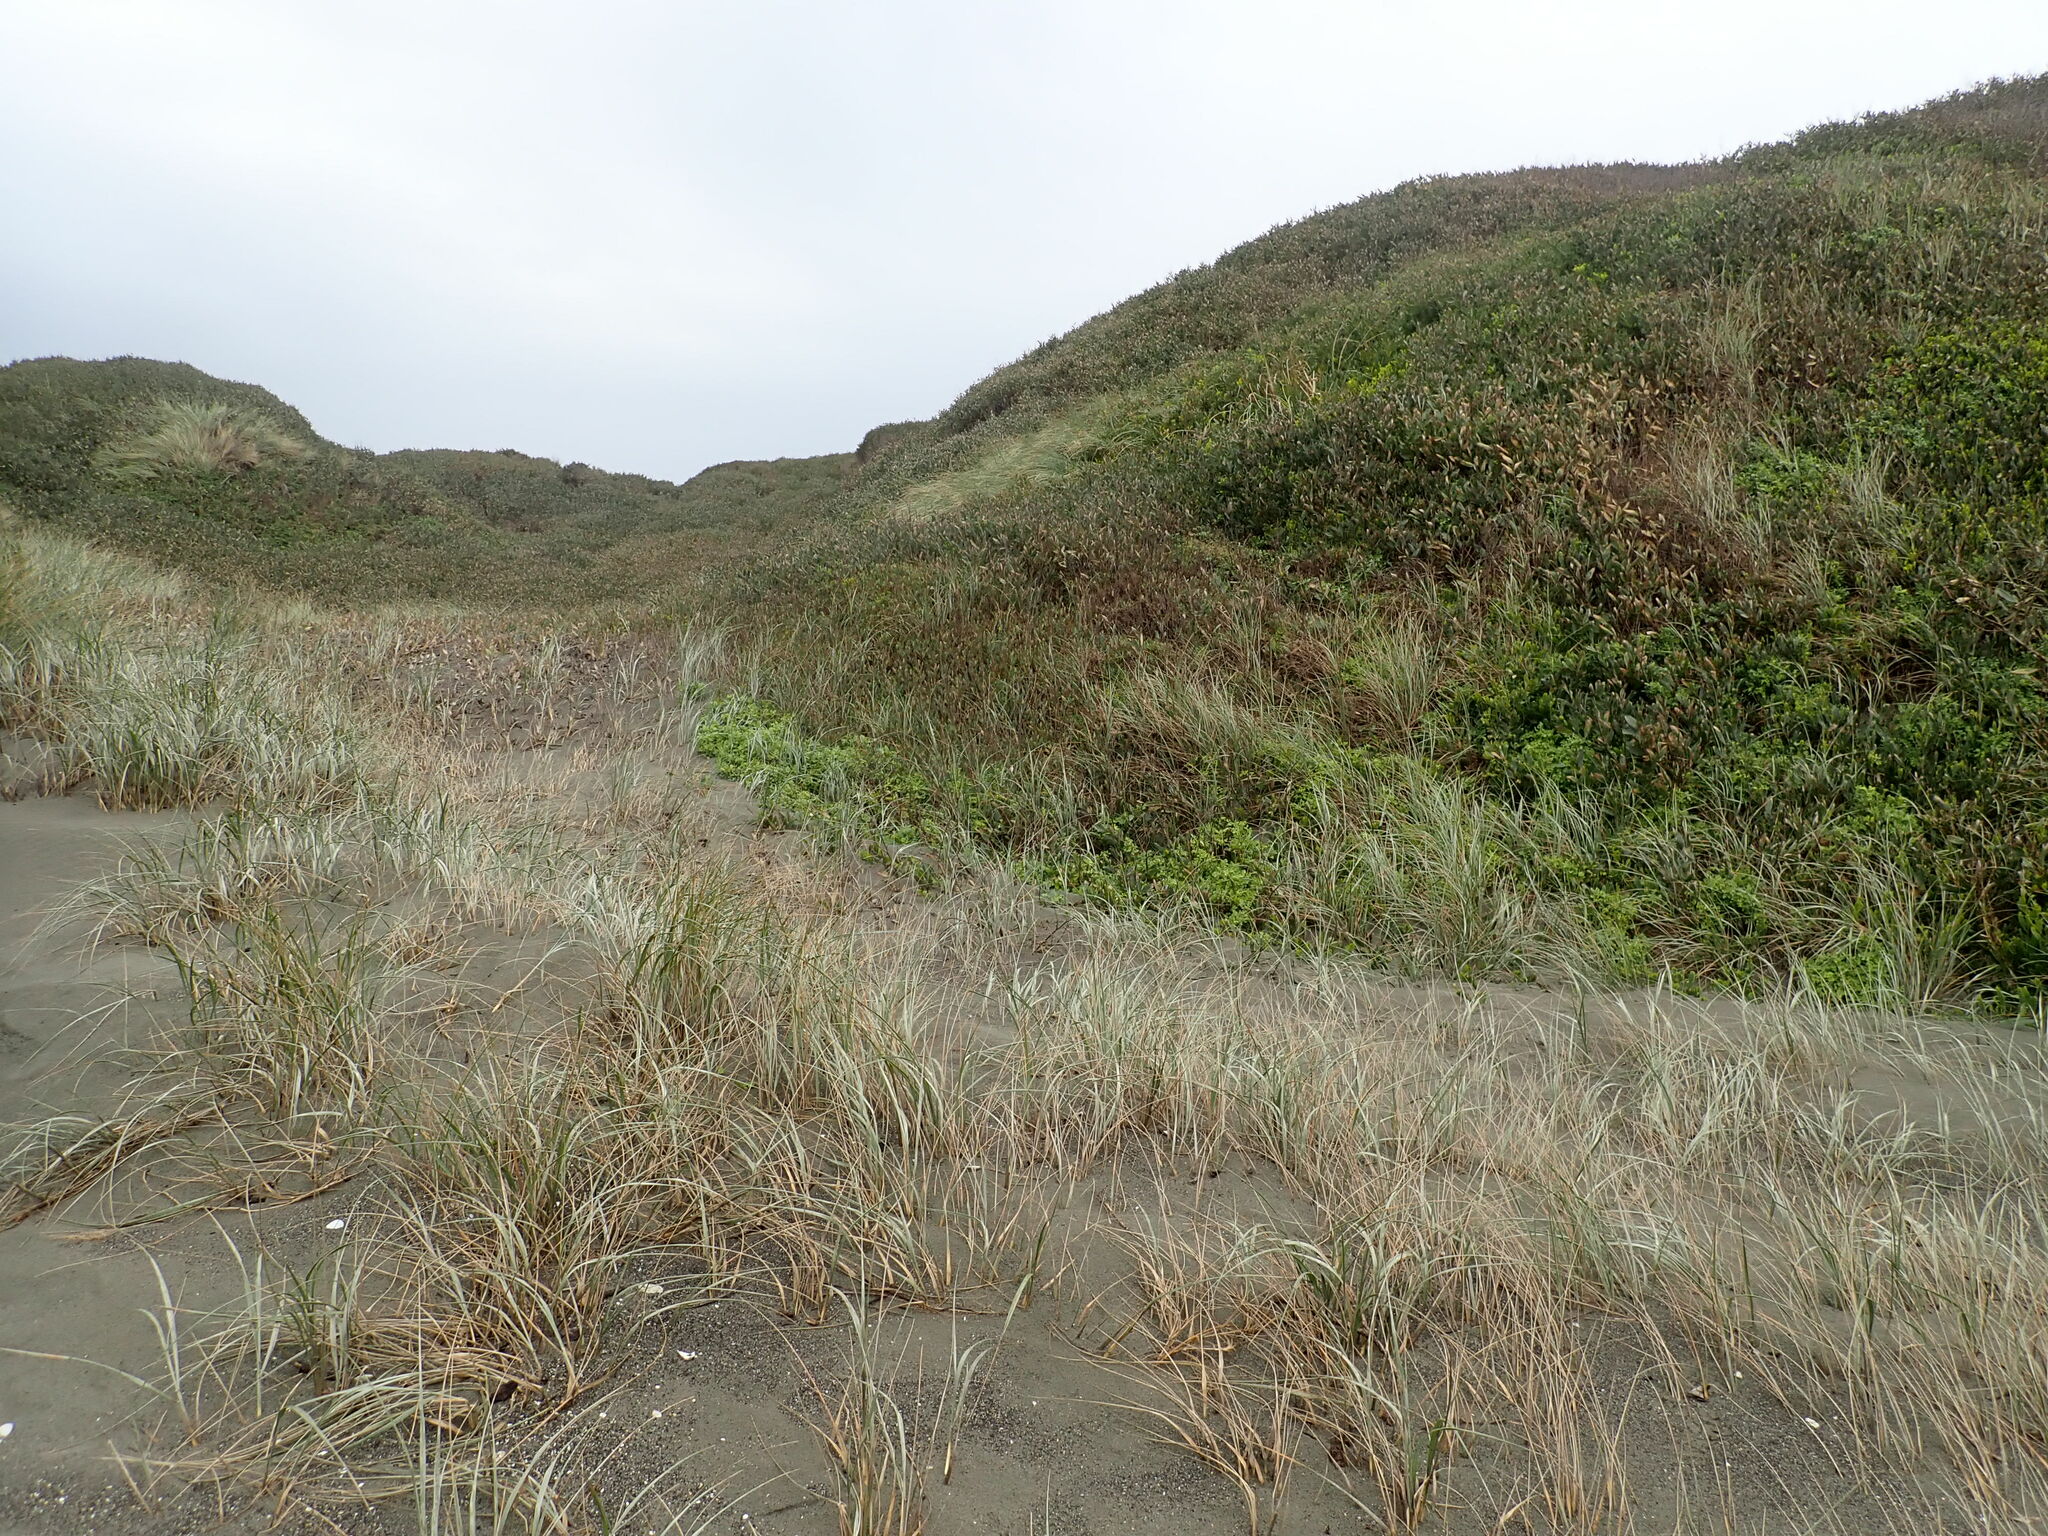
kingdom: Plantae
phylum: Tracheophyta
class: Magnoliopsida
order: Asterales
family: Asteraceae
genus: Senecio
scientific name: Senecio elegans
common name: Purple groundsel
